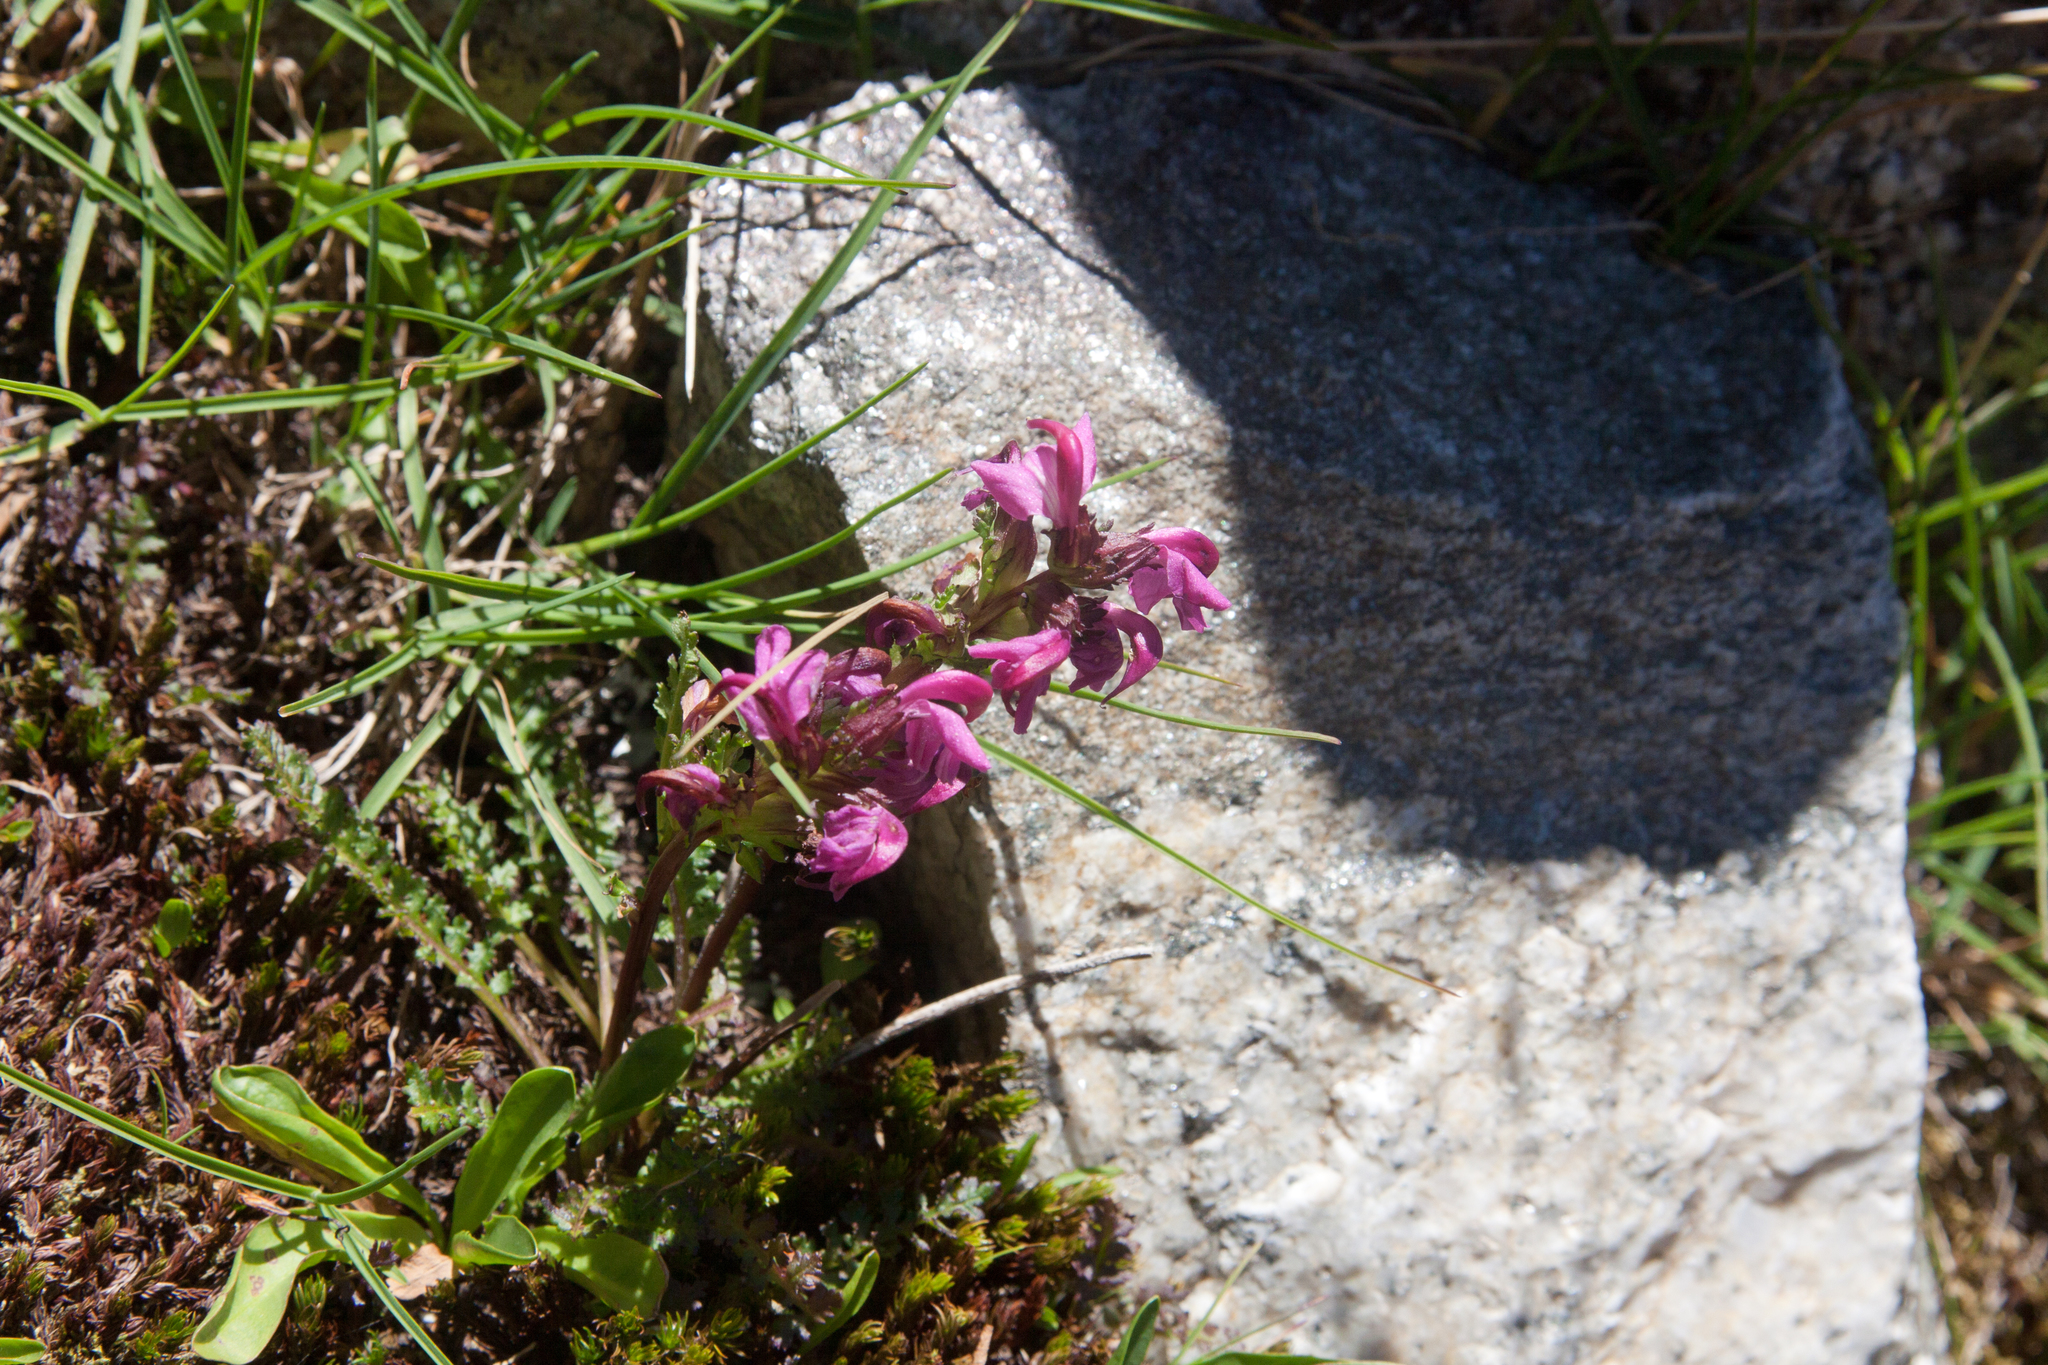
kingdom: Plantae
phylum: Tracheophyta
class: Magnoliopsida
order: Lamiales
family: Orobanchaceae
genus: Pedicularis
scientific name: Pedicularis nordmanniana
